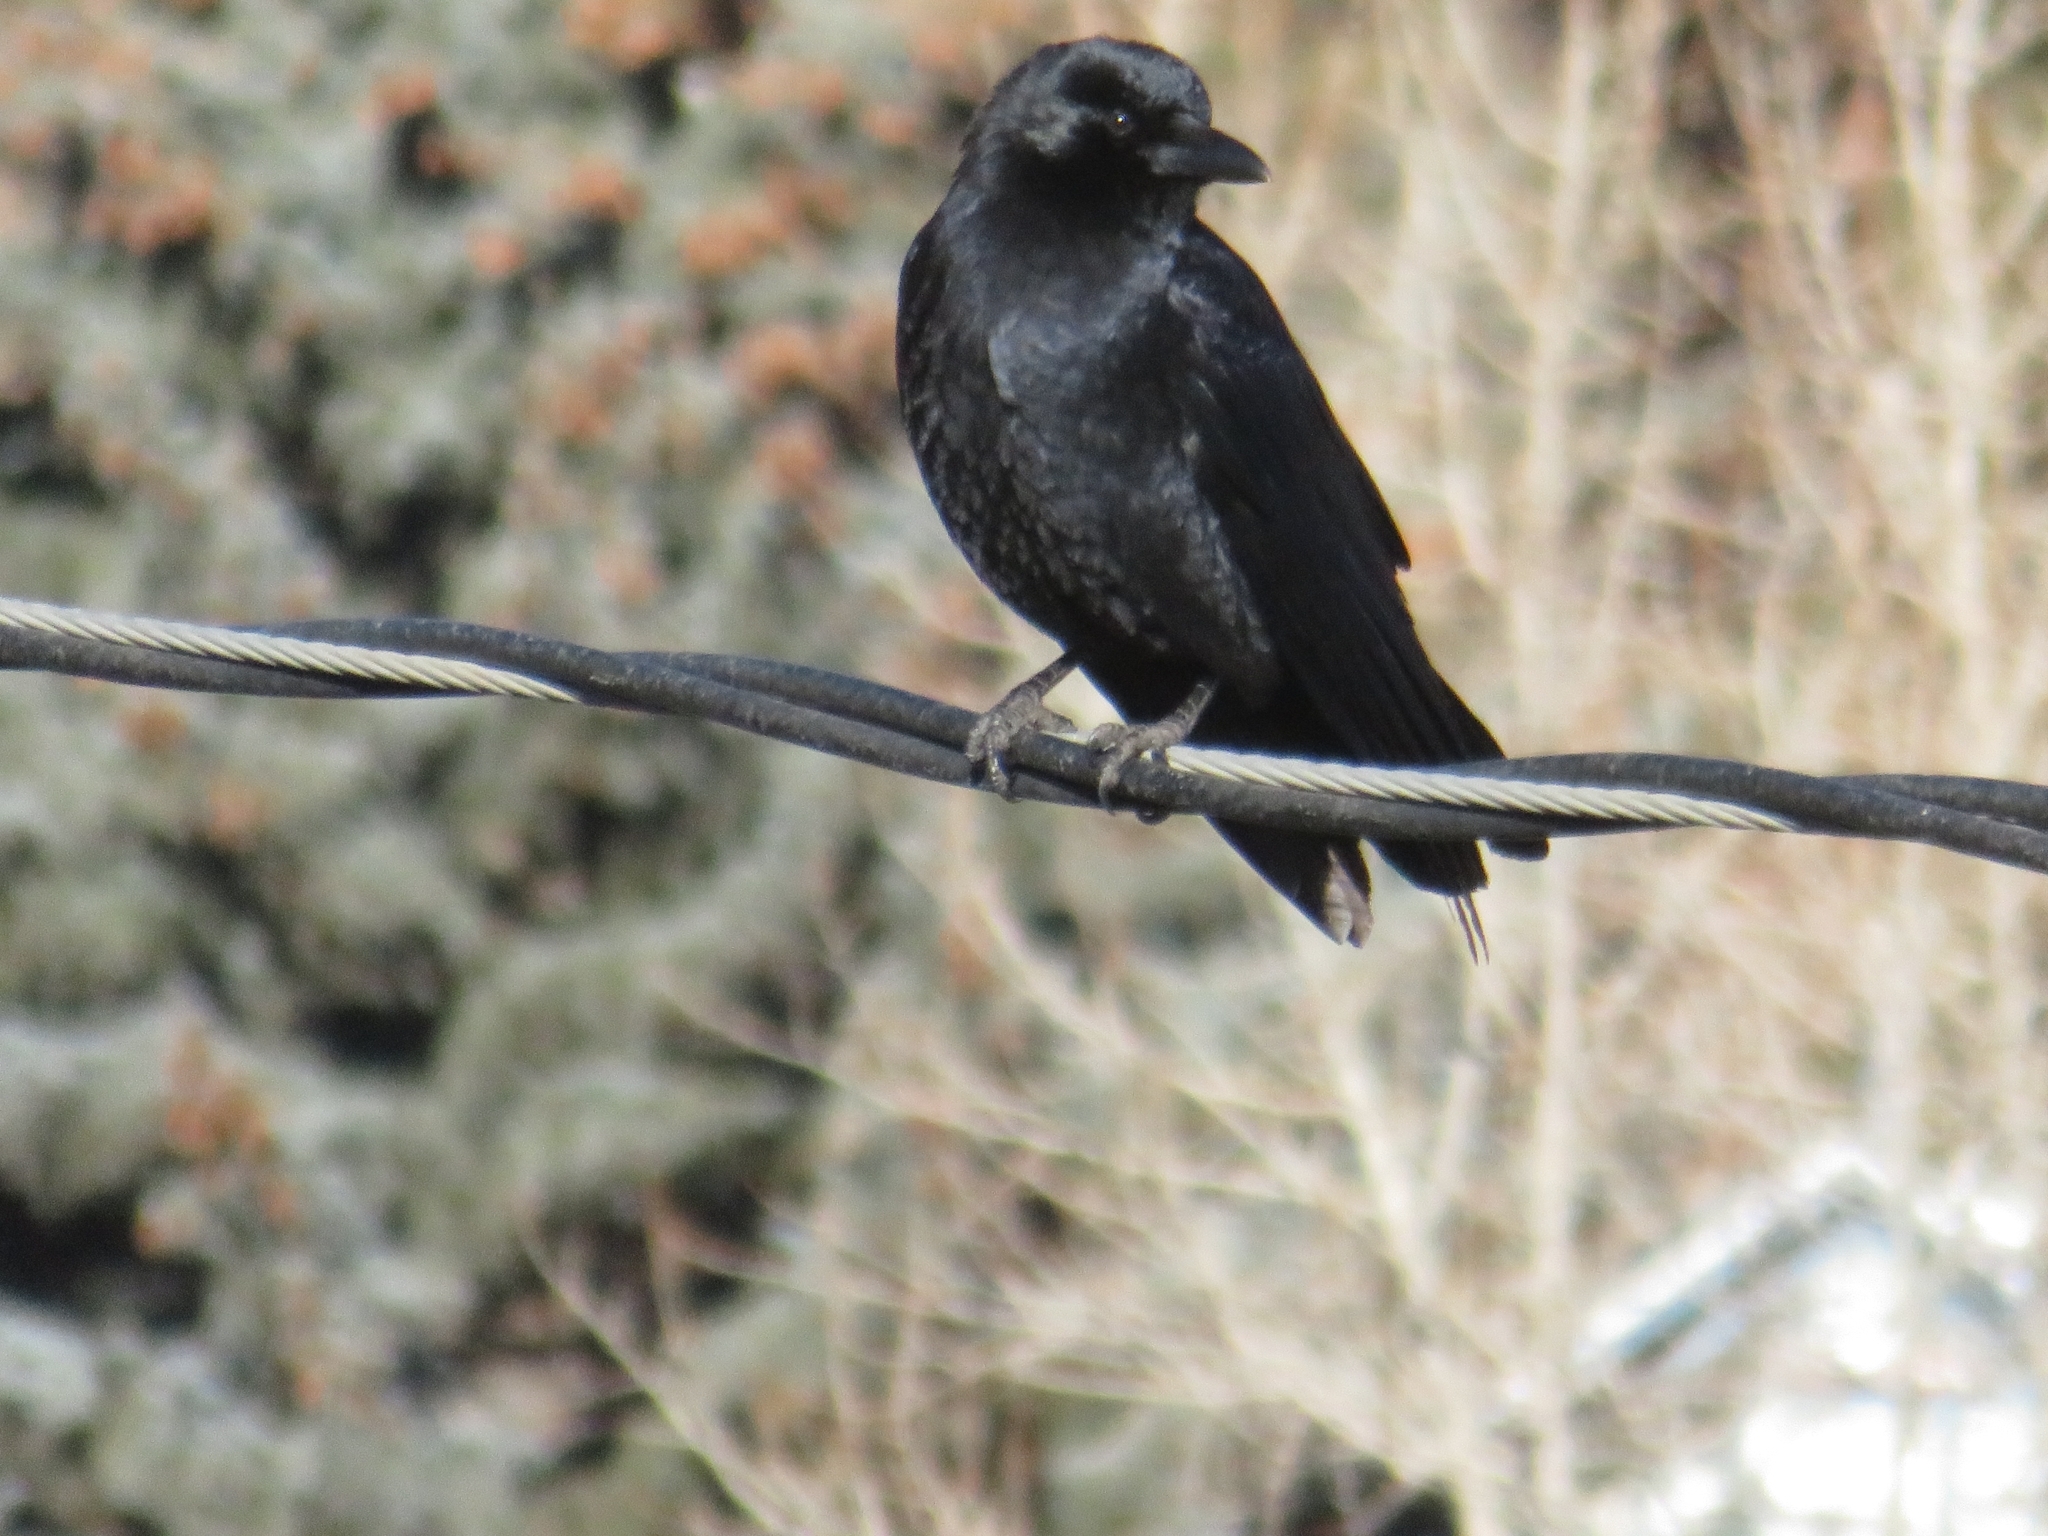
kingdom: Animalia
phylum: Chordata
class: Aves
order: Passeriformes
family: Corvidae
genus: Corvus
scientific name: Corvus brachyrhynchos
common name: American crow
